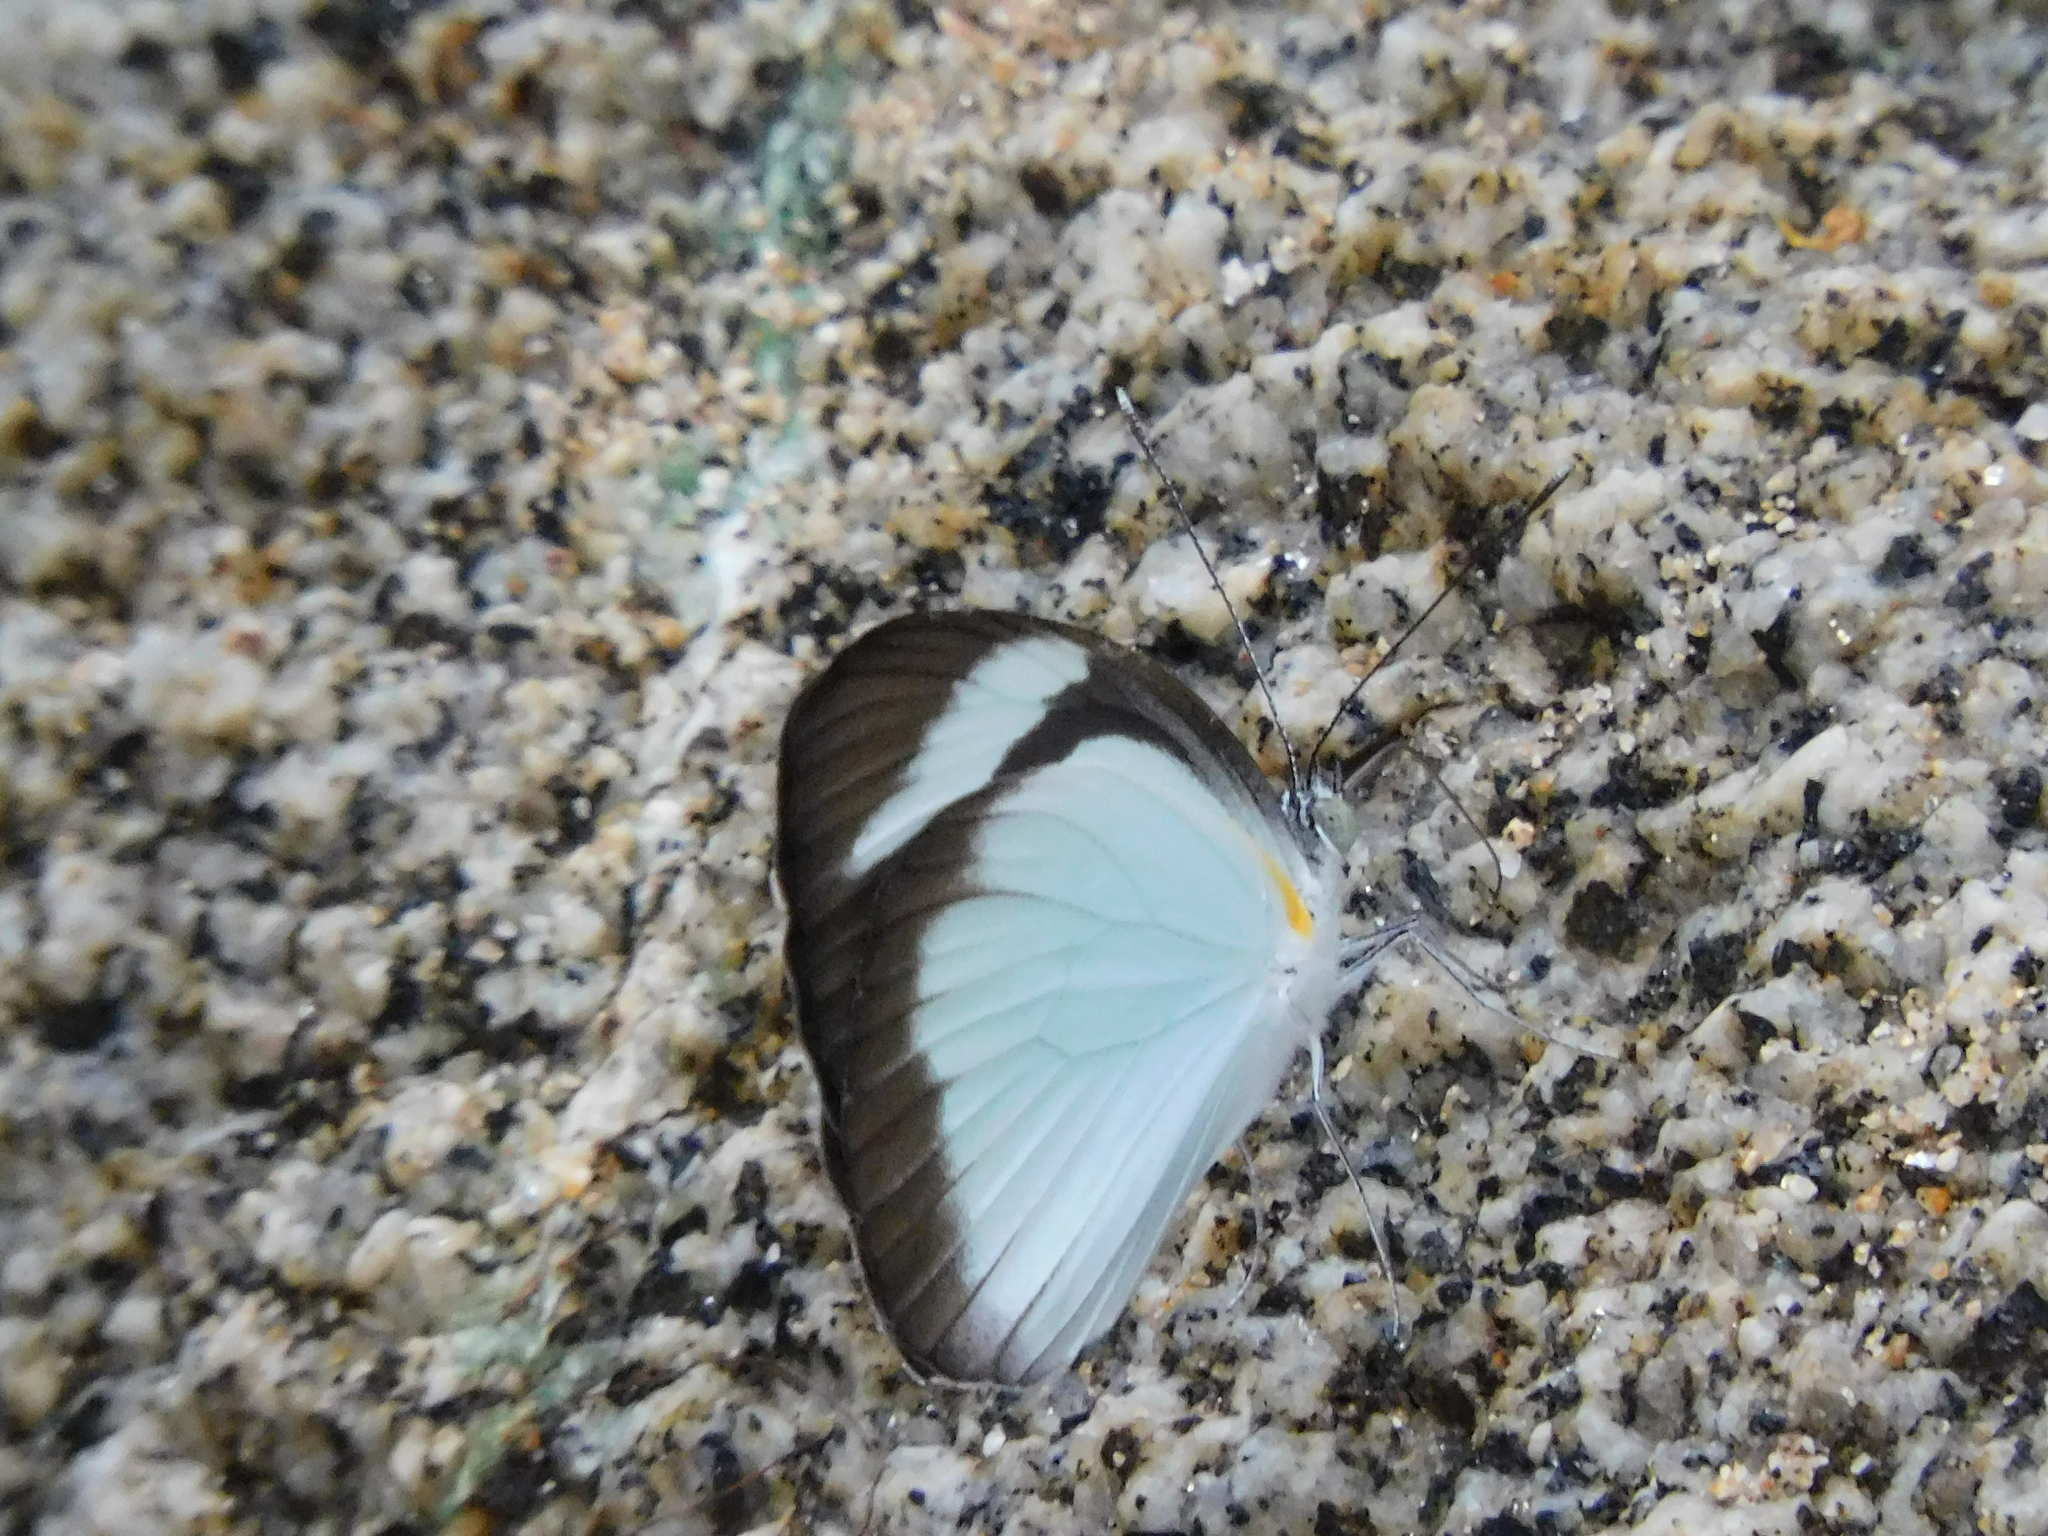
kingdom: Animalia
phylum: Arthropoda
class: Insecta
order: Lepidoptera
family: Pieridae
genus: Itaballia
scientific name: Itaballia demophile
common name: Cross-barred white
